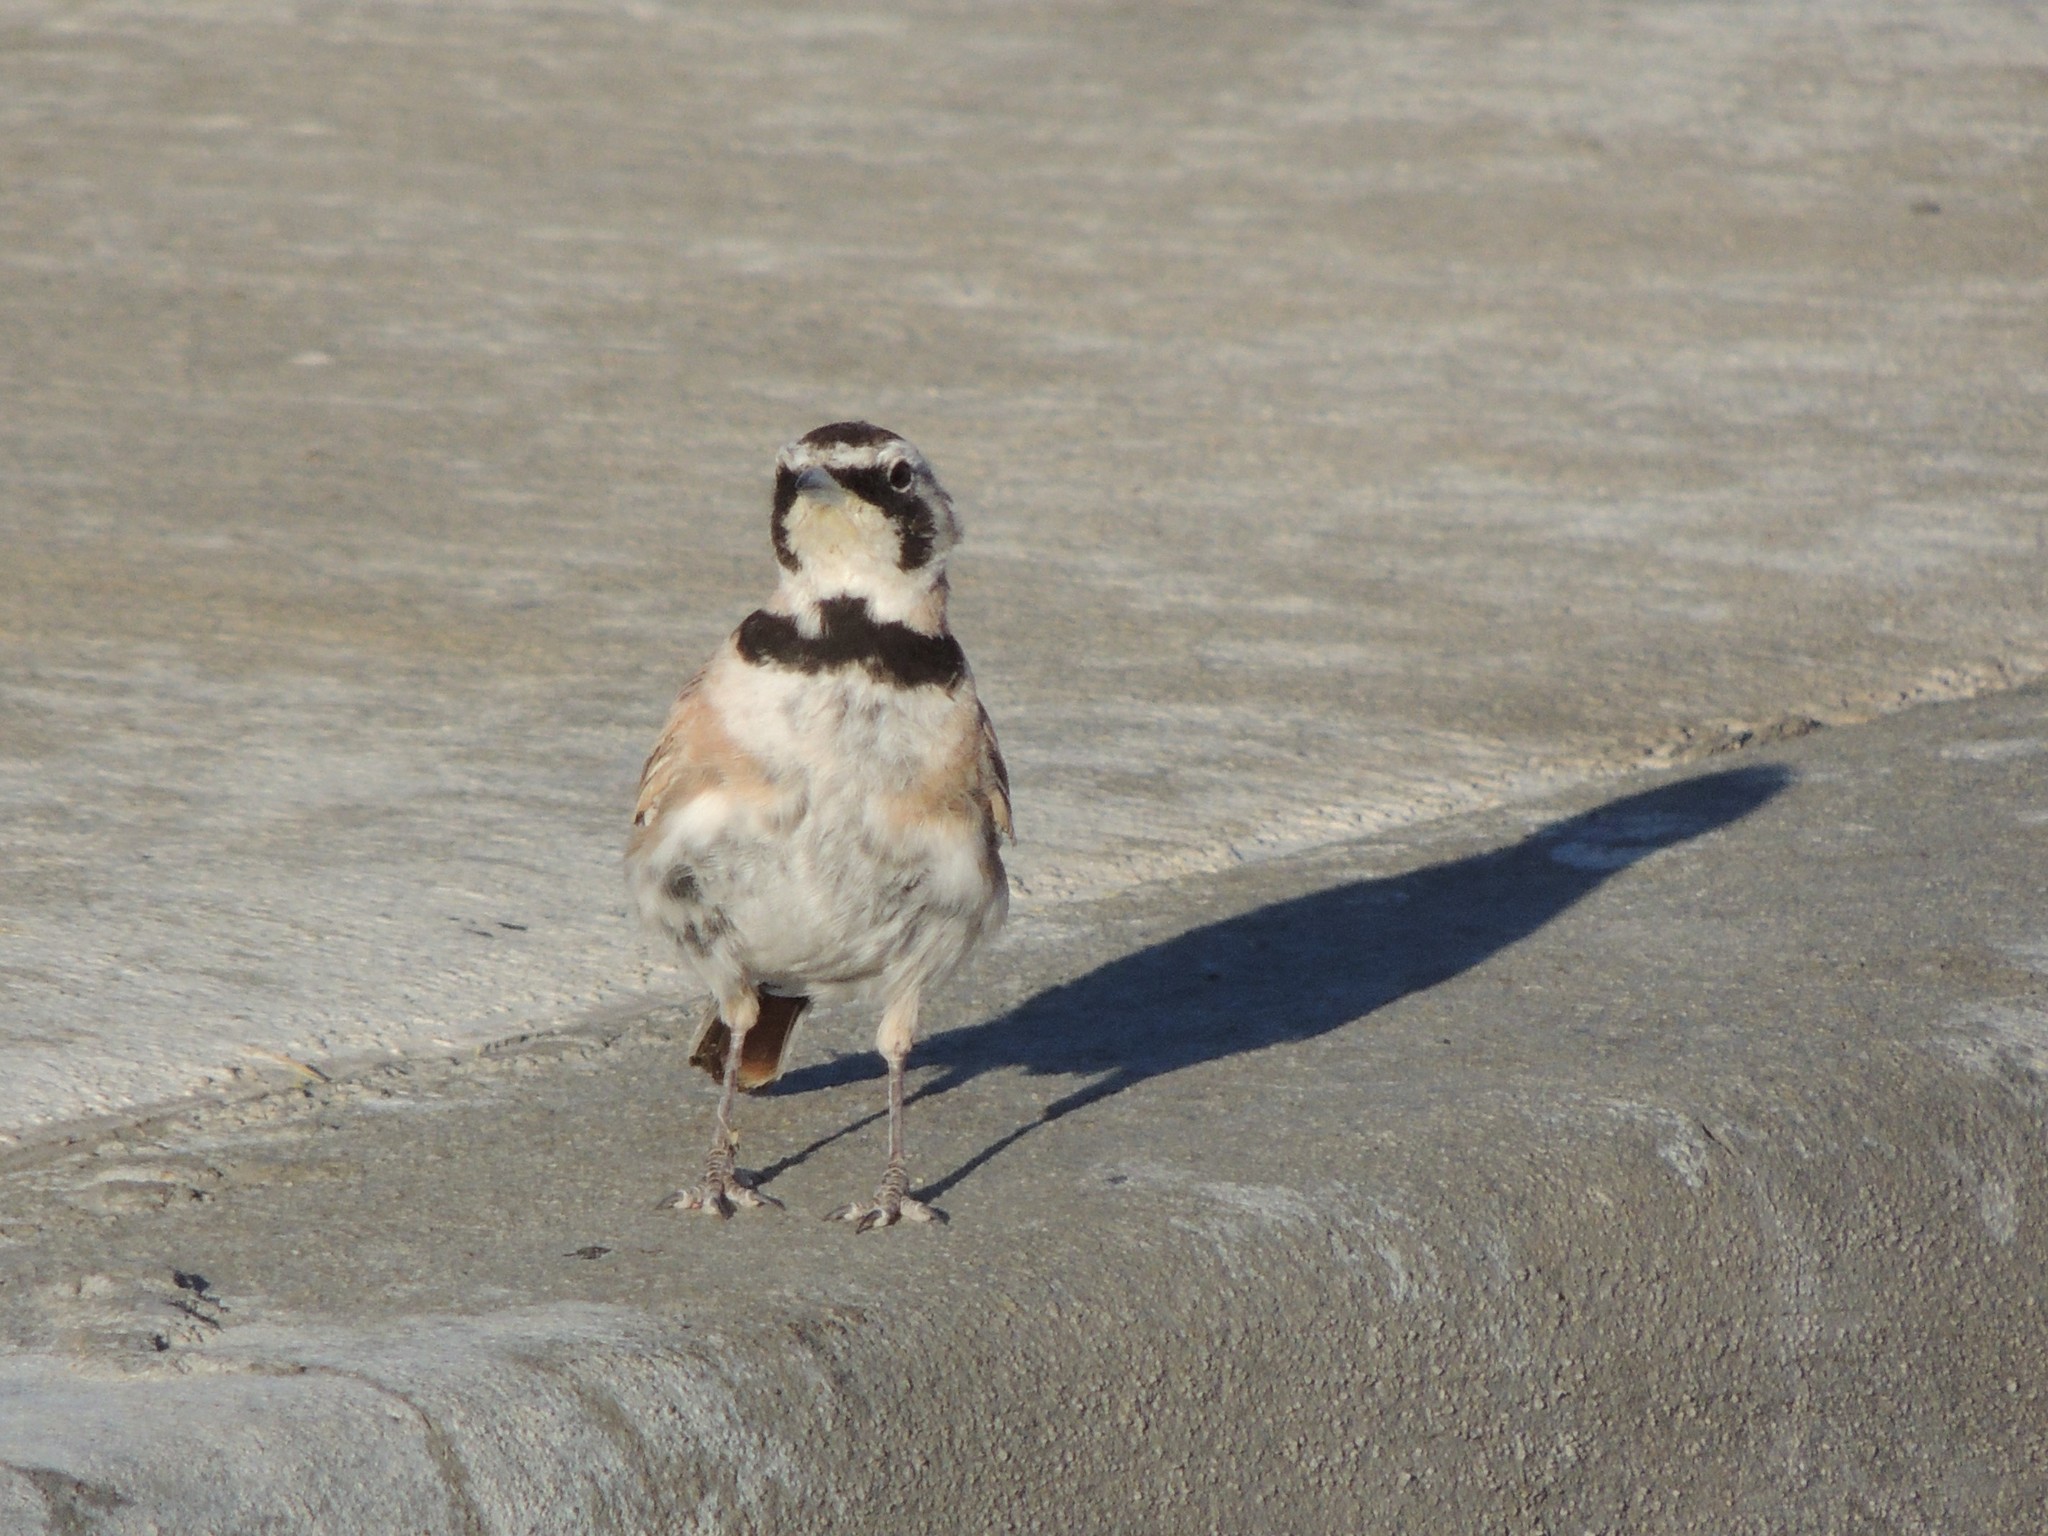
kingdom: Animalia
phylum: Chordata
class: Aves
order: Passeriformes
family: Alaudidae
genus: Eremophila
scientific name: Eremophila alpestris
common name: Horned lark
